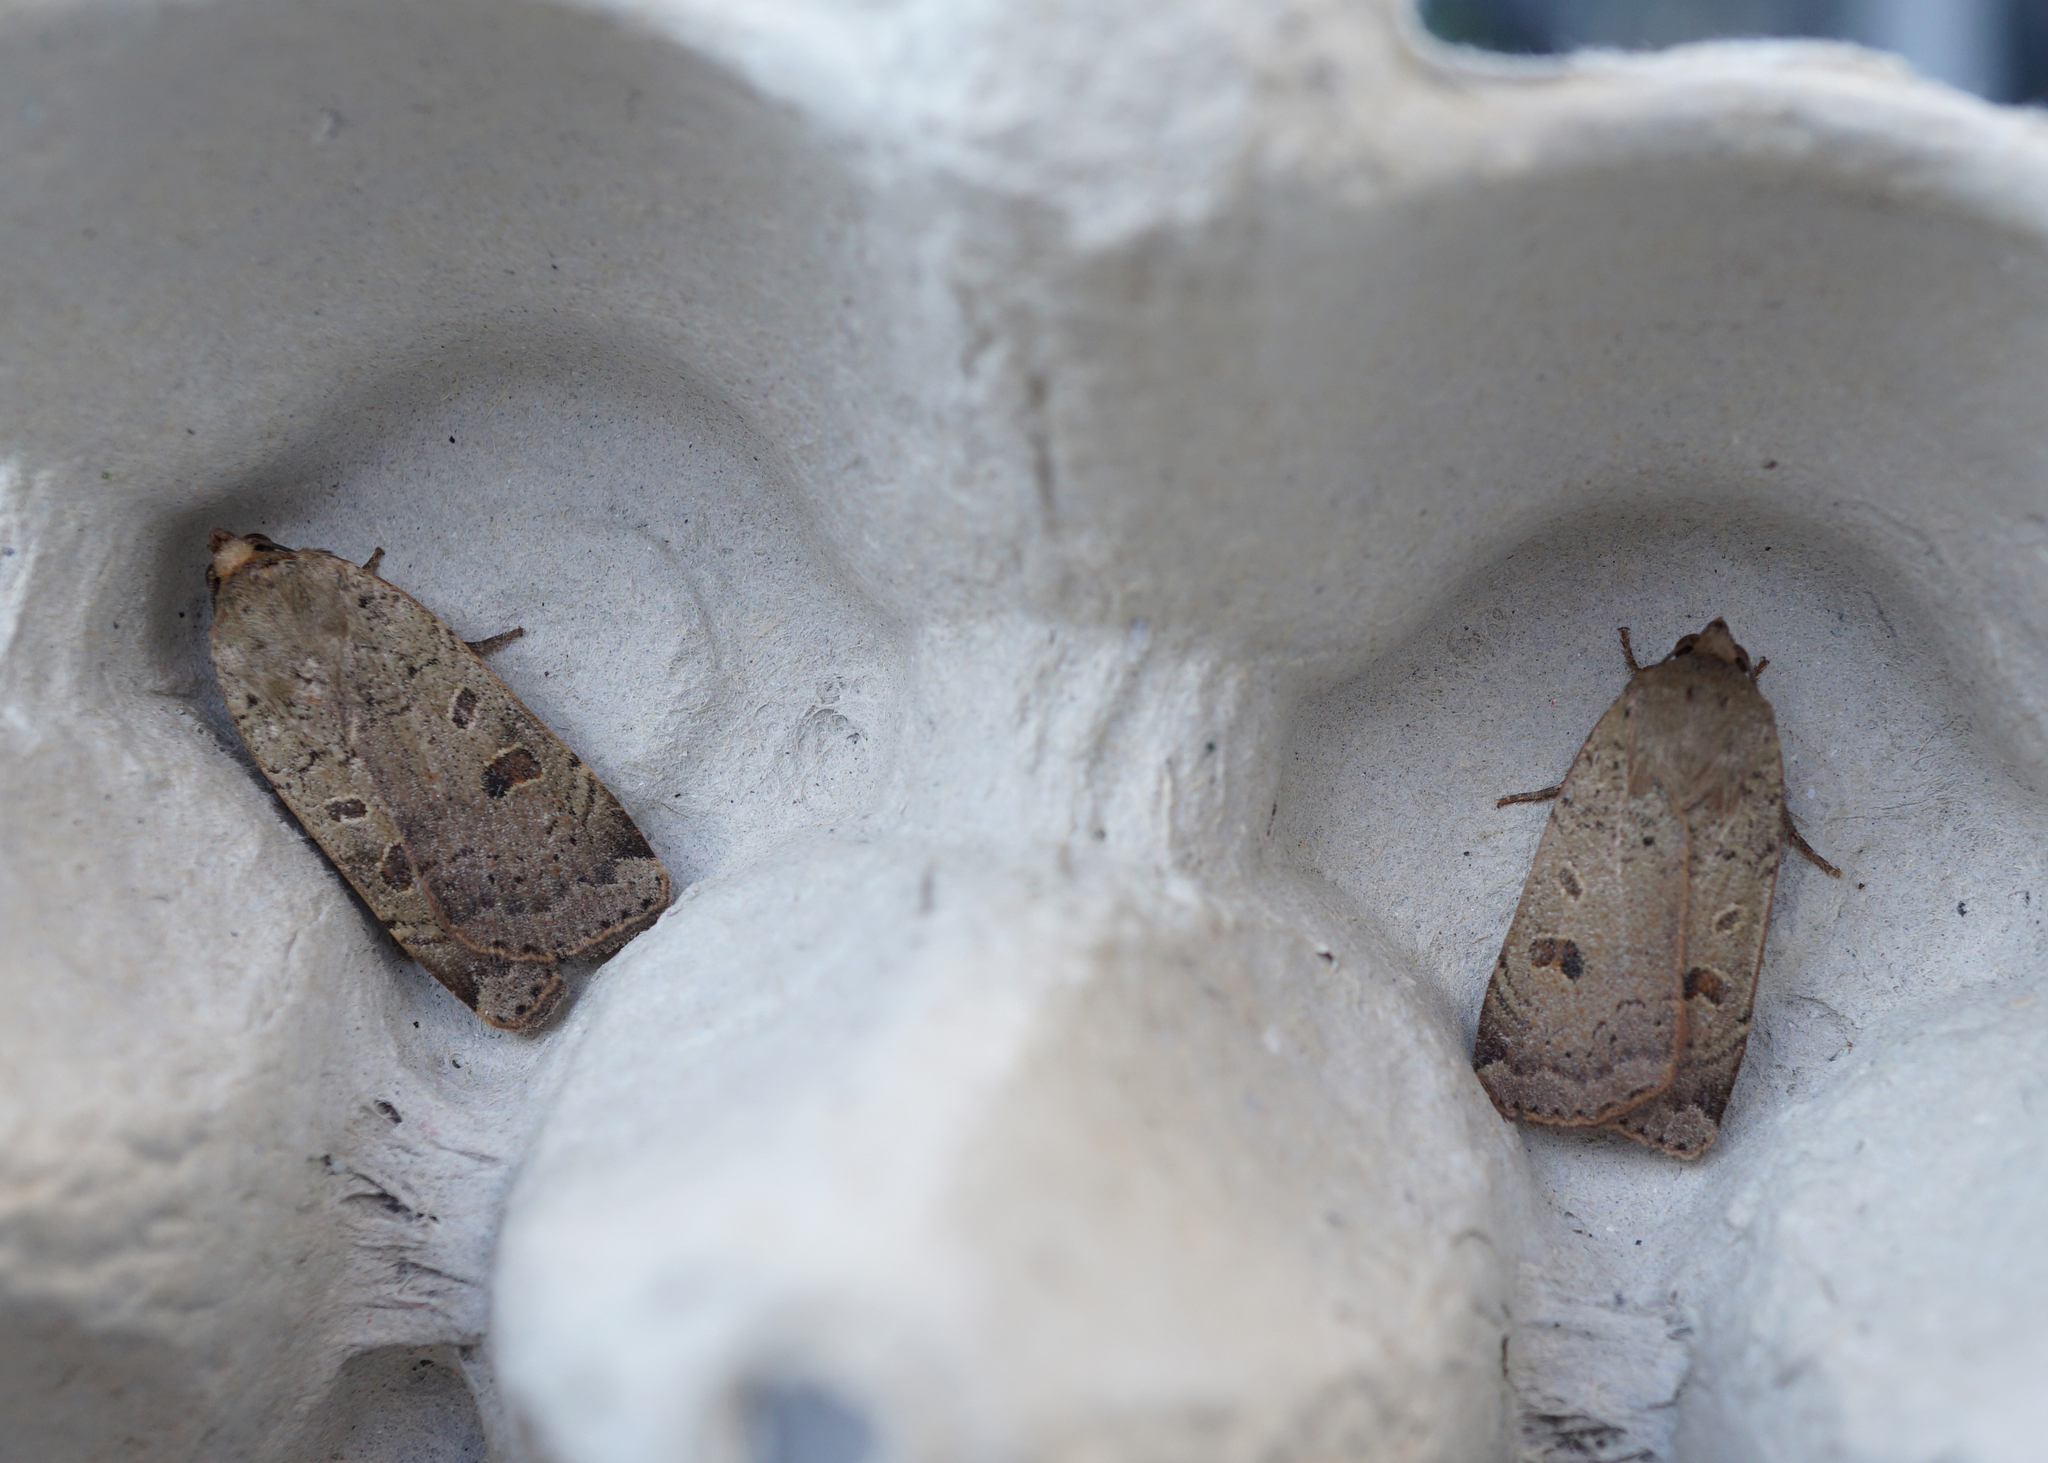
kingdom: Animalia
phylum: Arthropoda
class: Insecta
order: Lepidoptera
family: Noctuidae
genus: Noctua
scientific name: Noctua comes
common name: Lesser yellow underwing
